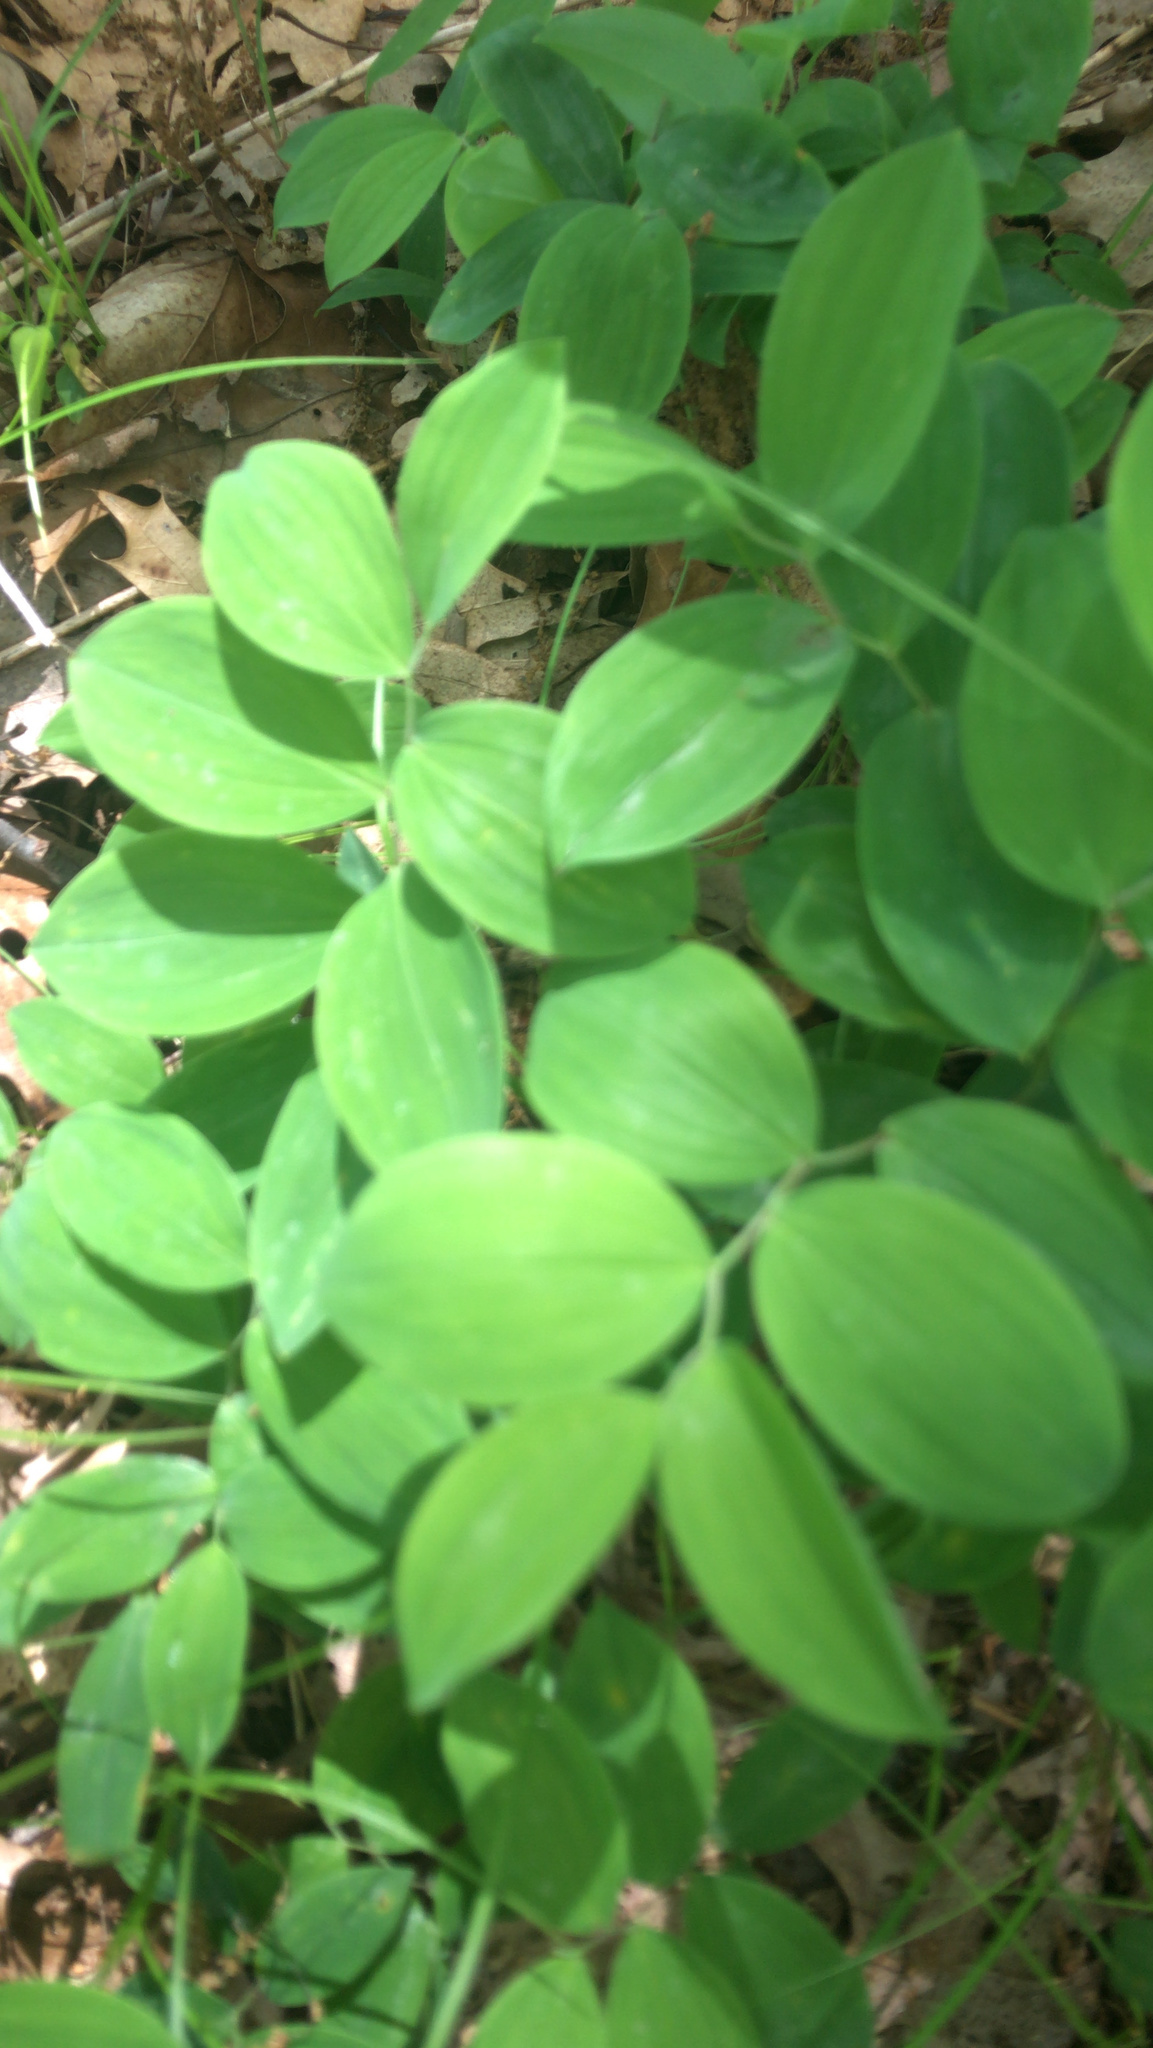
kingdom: Plantae
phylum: Tracheophyta
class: Liliopsida
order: Liliales
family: Colchicaceae
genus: Uvularia
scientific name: Uvularia sessilifolia
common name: Straw-lily
